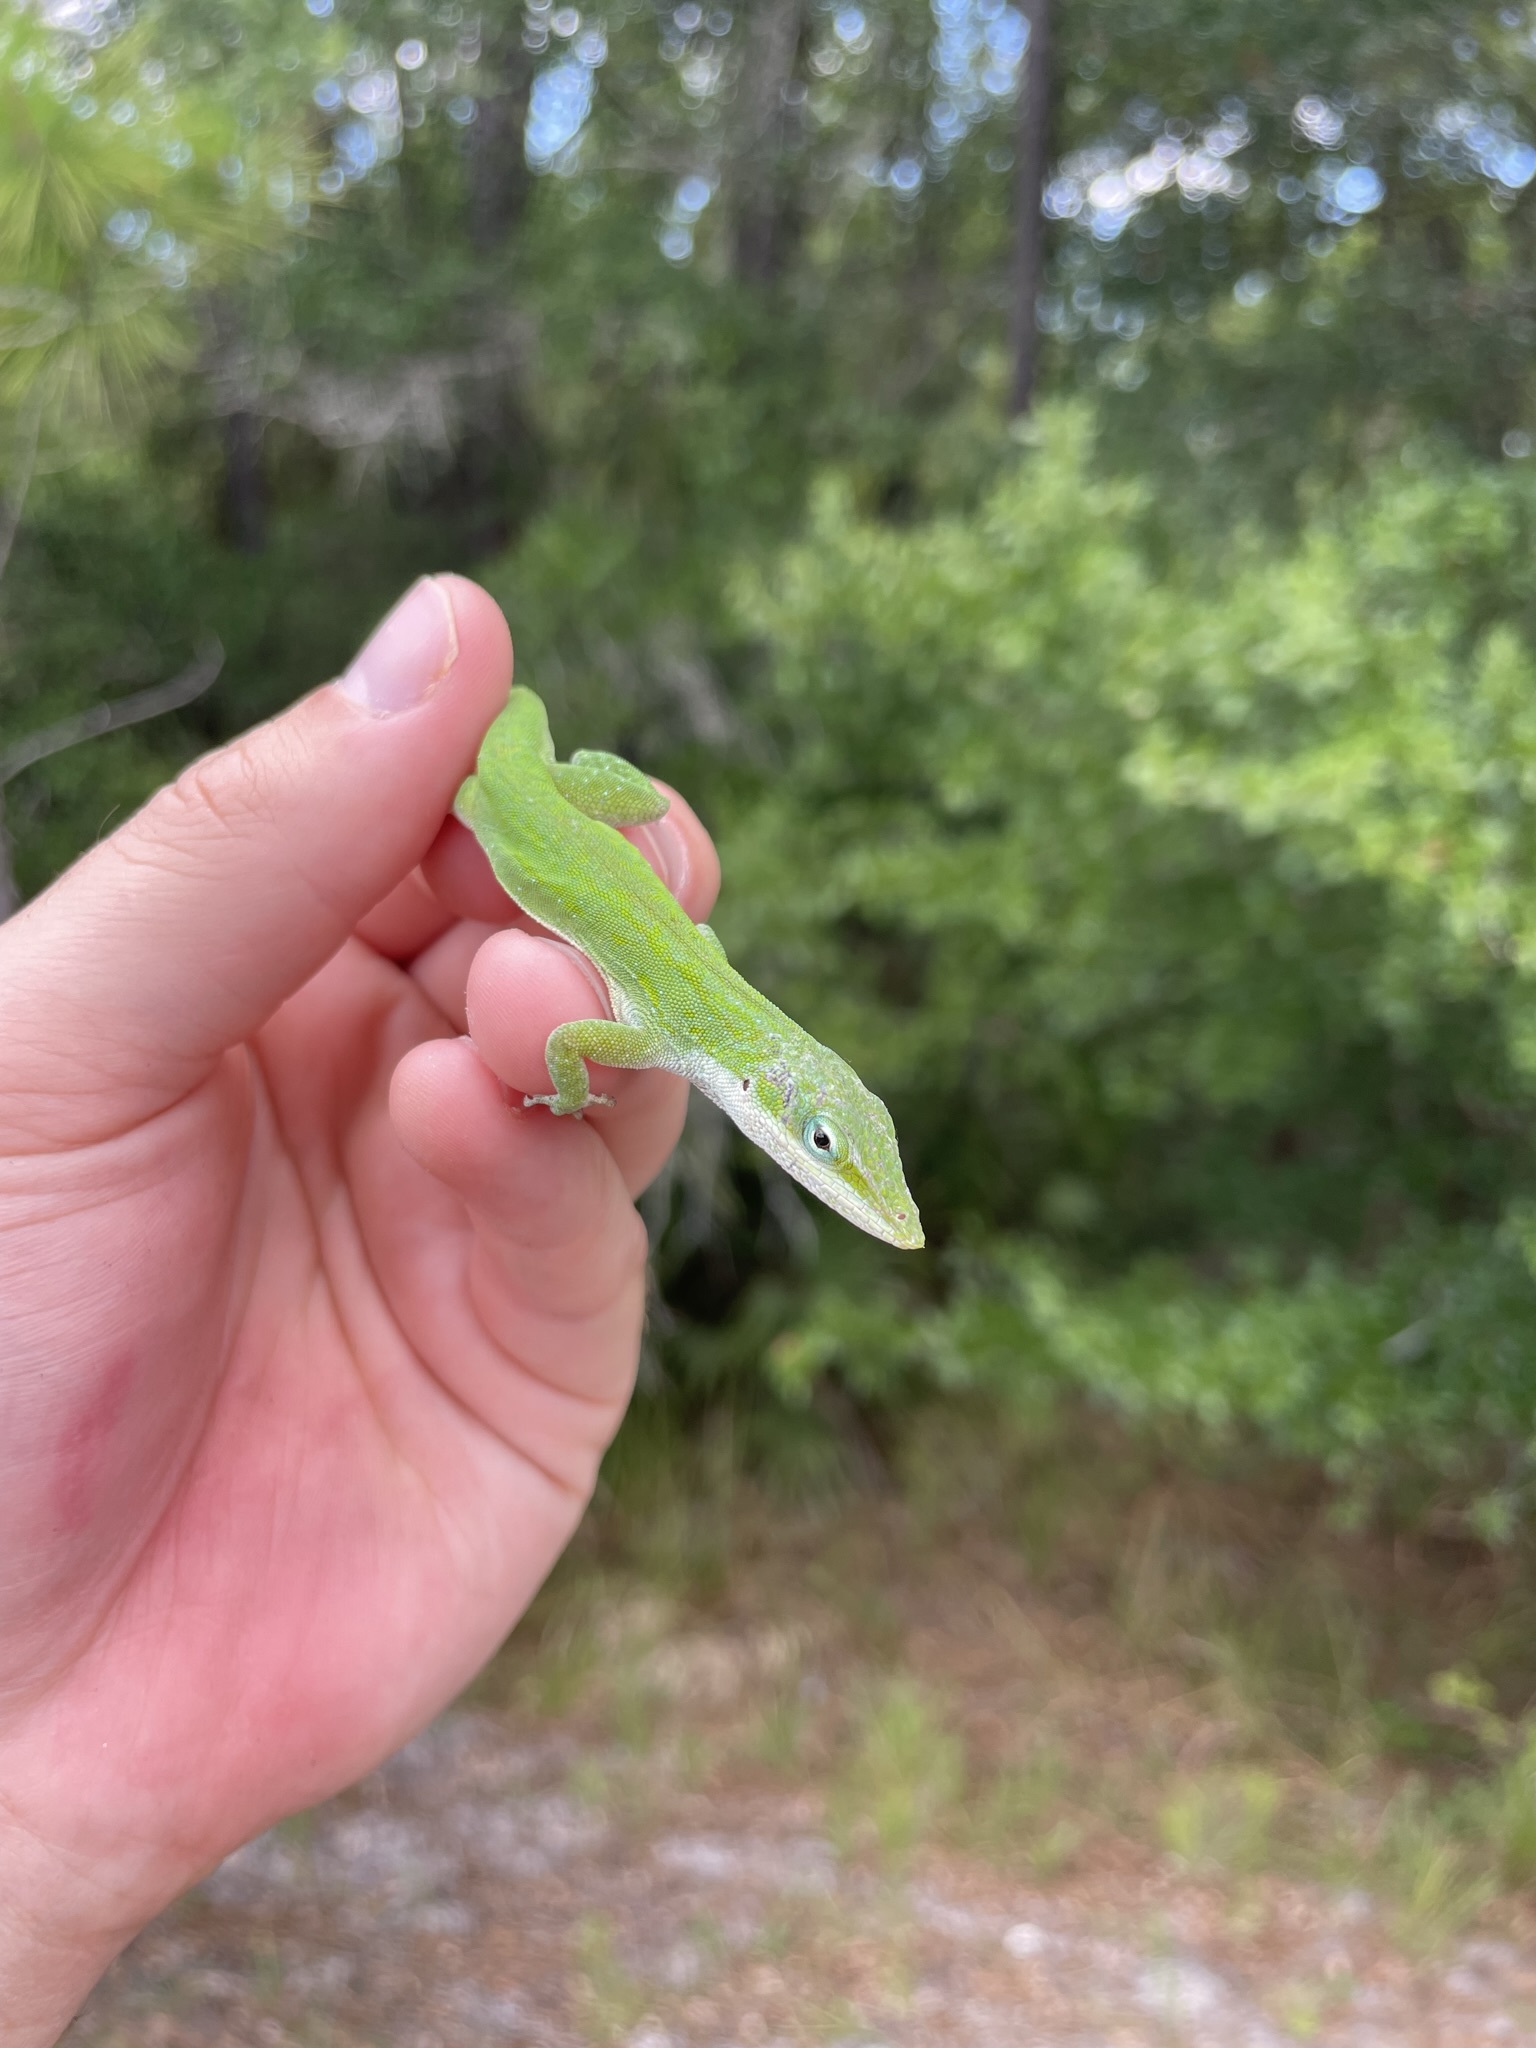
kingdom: Animalia
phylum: Chordata
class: Squamata
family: Dactyloidae
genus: Anolis
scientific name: Anolis carolinensis
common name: Green anole
